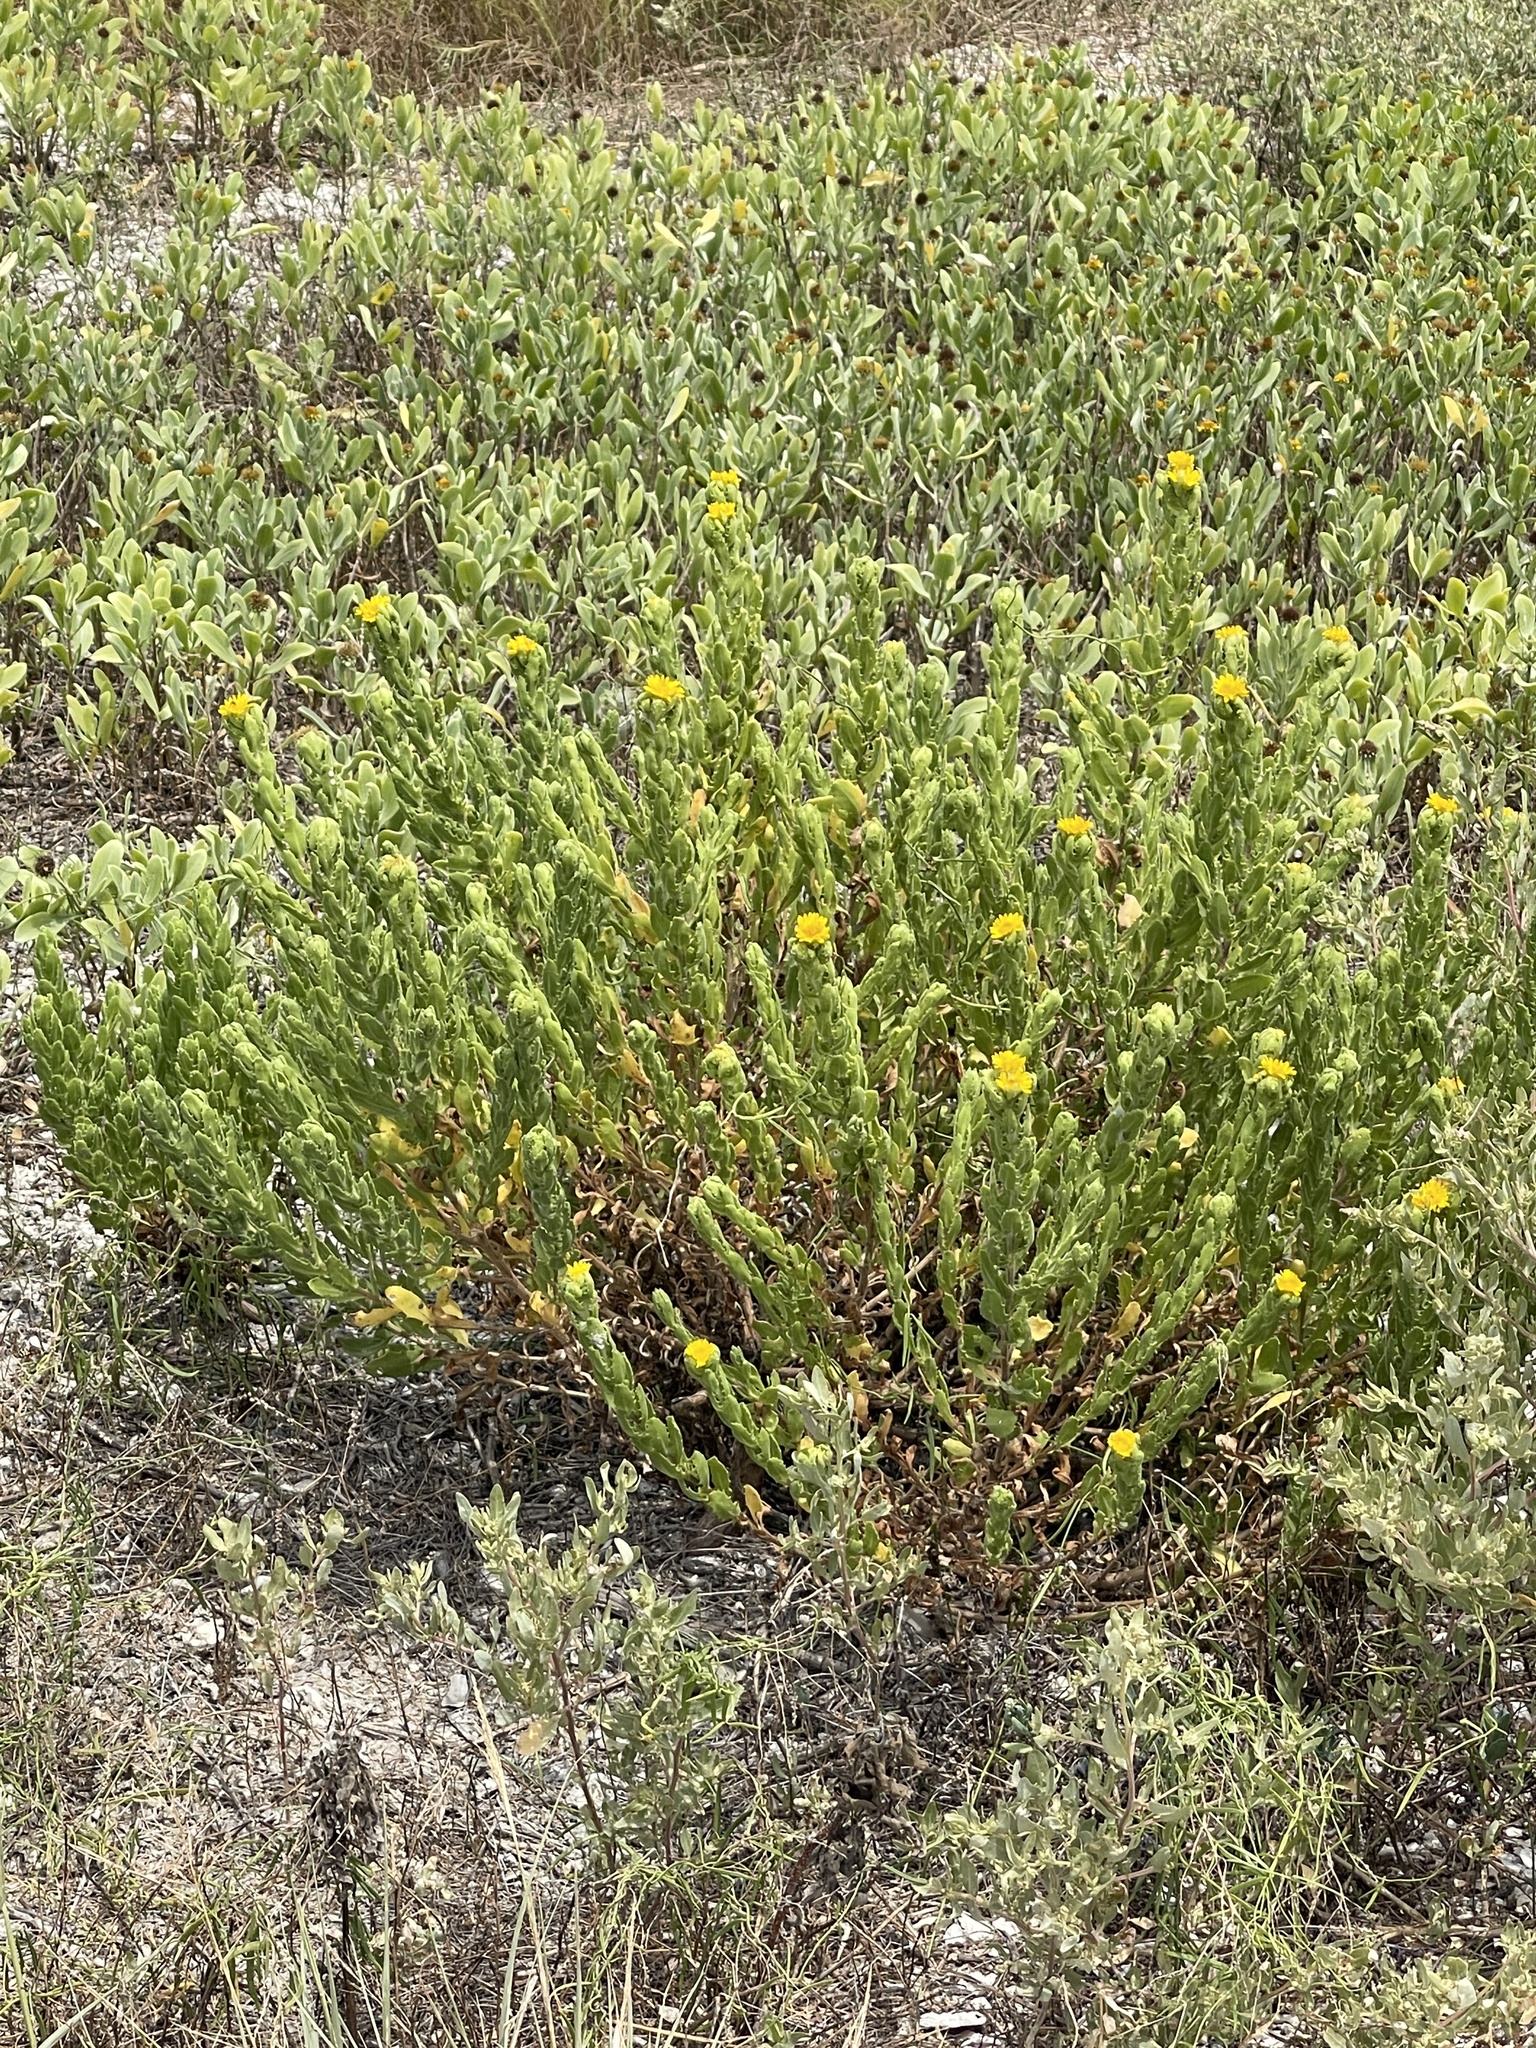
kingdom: Plantae
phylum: Tracheophyta
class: Magnoliopsida
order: Asterales
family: Asteraceae
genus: Rayjacksonia
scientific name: Rayjacksonia phyllocephala
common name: Gulf coast camphor daisy
